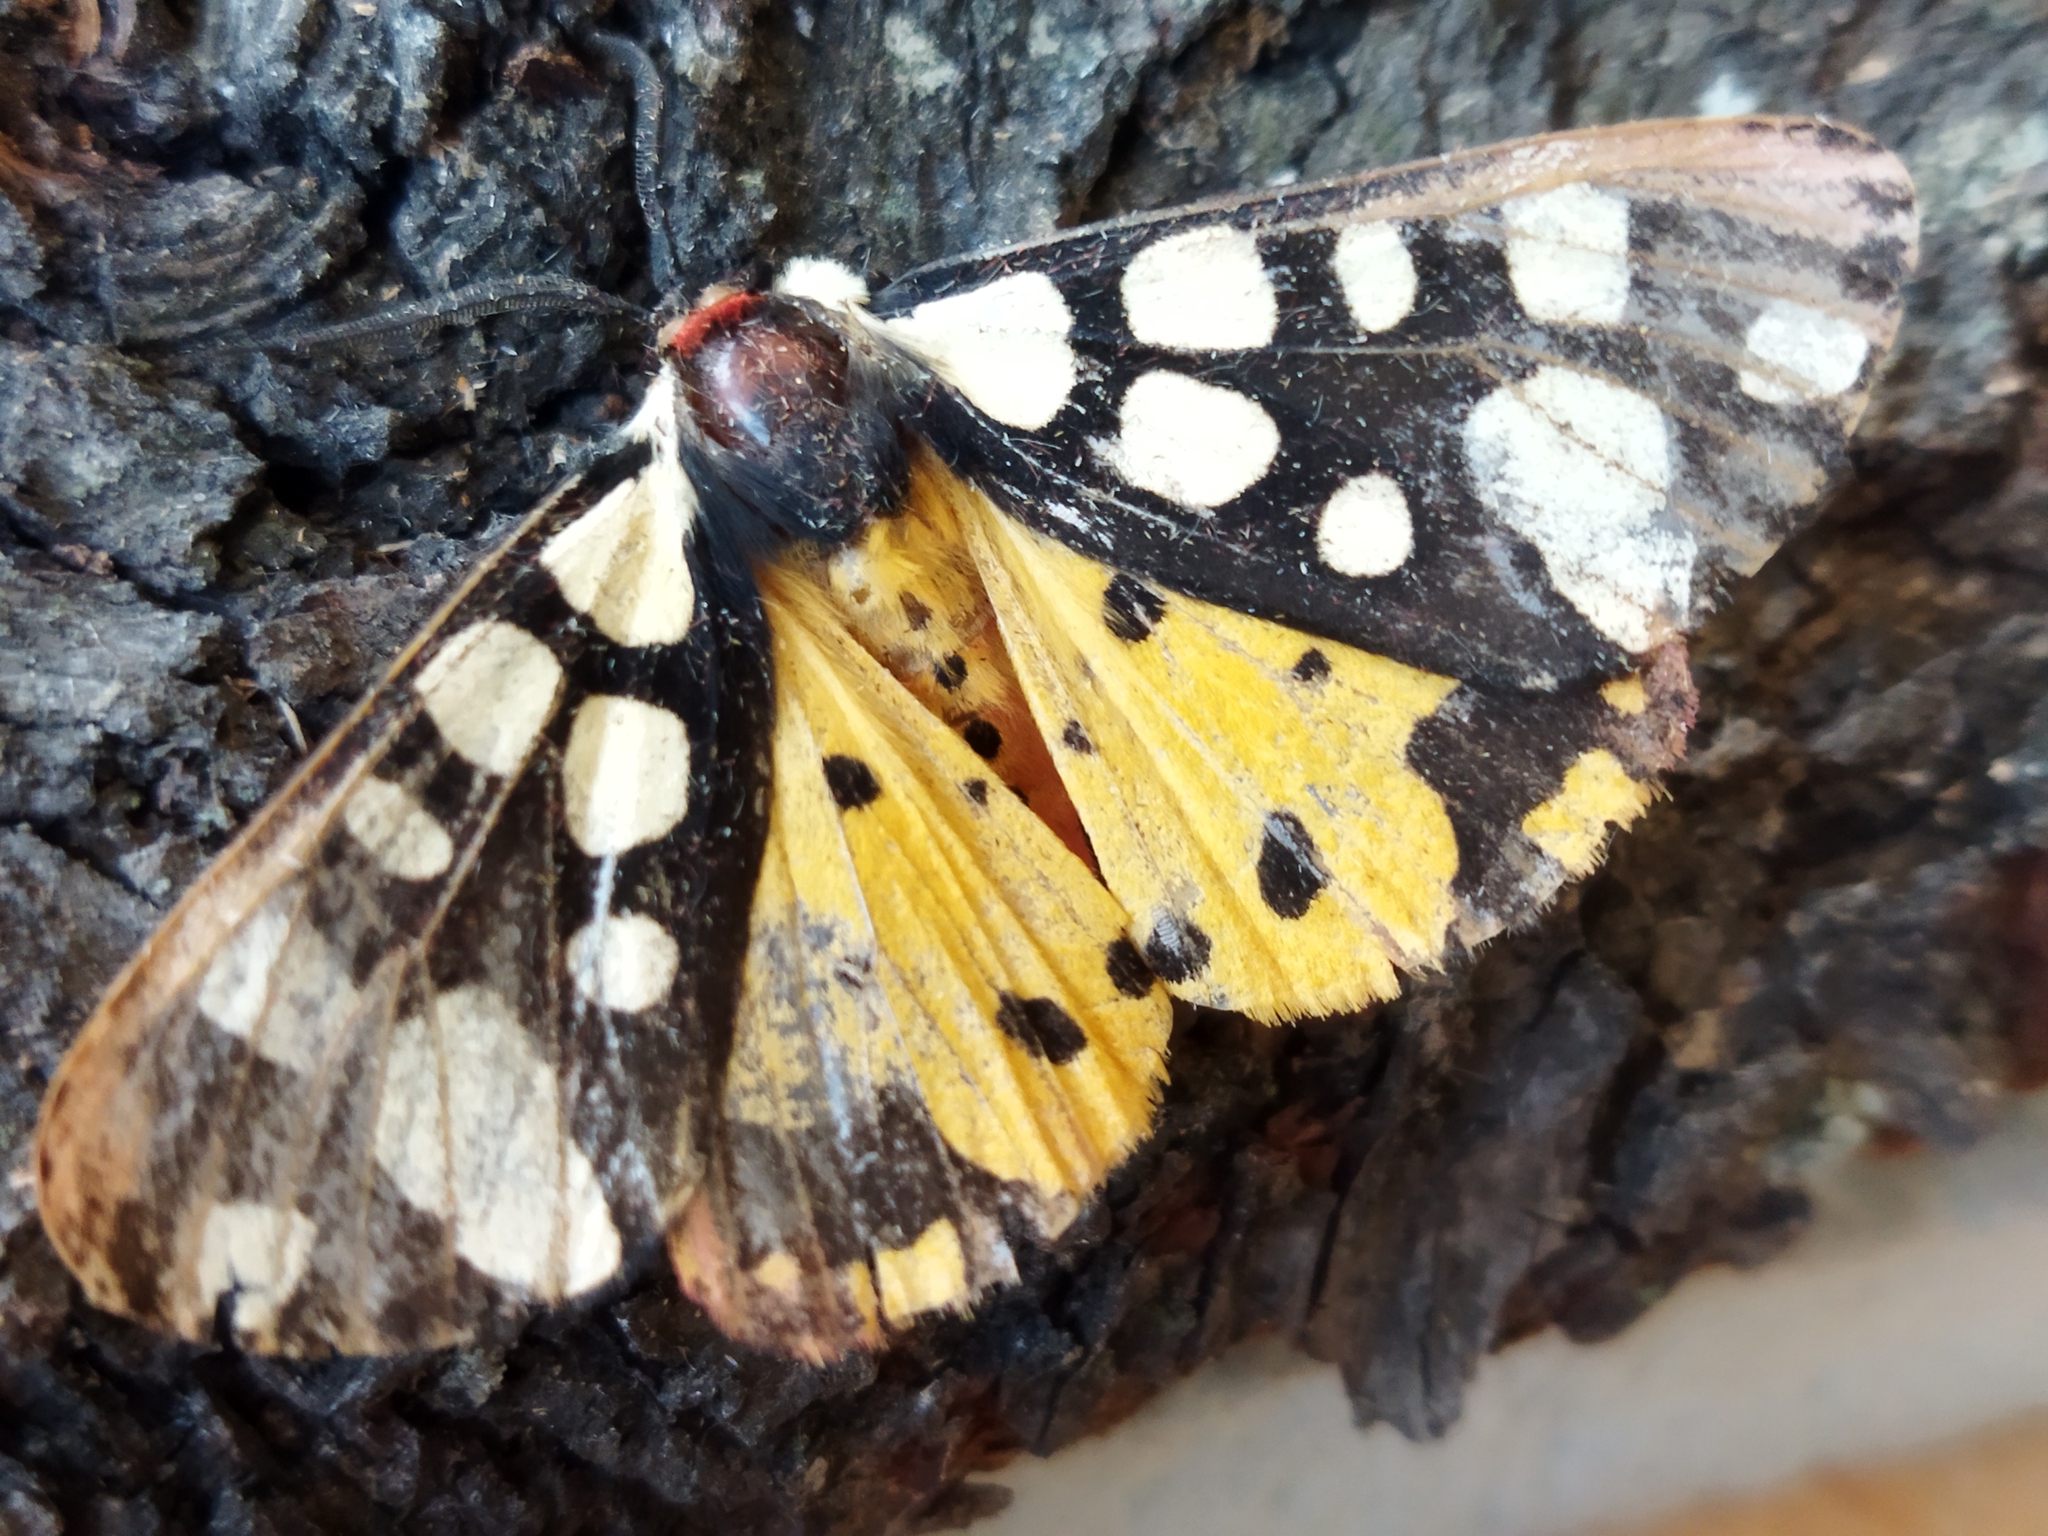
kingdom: Animalia
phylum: Arthropoda
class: Insecta
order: Lepidoptera
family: Erebidae
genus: Epicallia
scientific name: Epicallia villica
